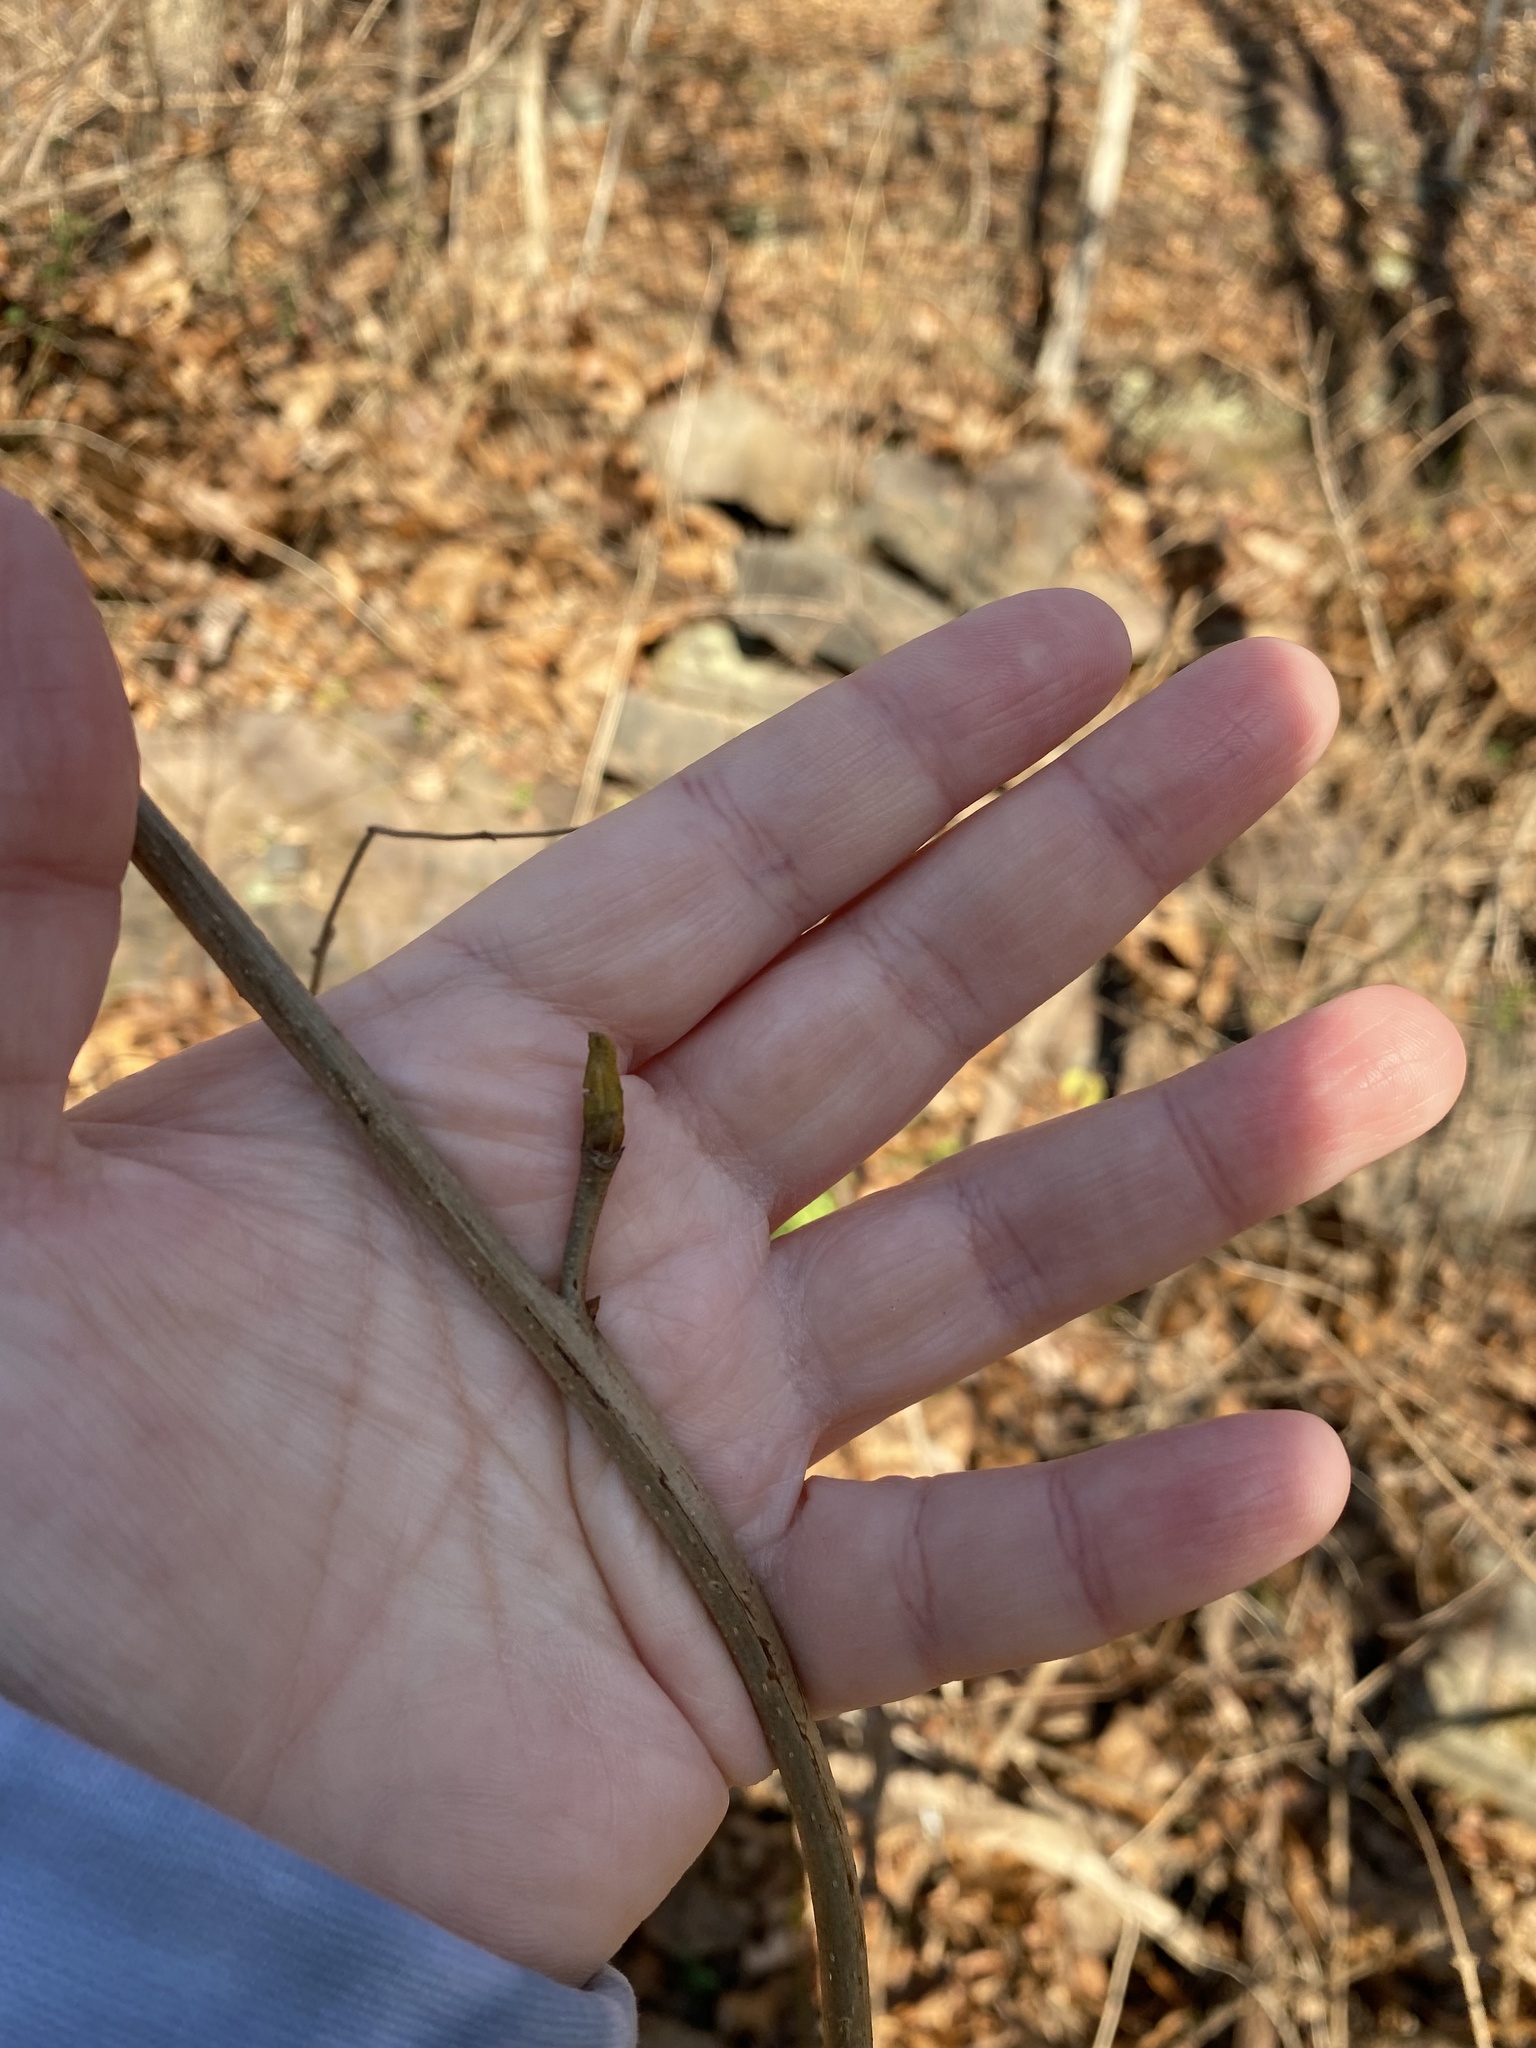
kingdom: Plantae
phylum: Tracheophyta
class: Magnoliopsida
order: Fagales
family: Juglandaceae
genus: Carya
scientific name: Carya cordiformis
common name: Bitternut hickory
